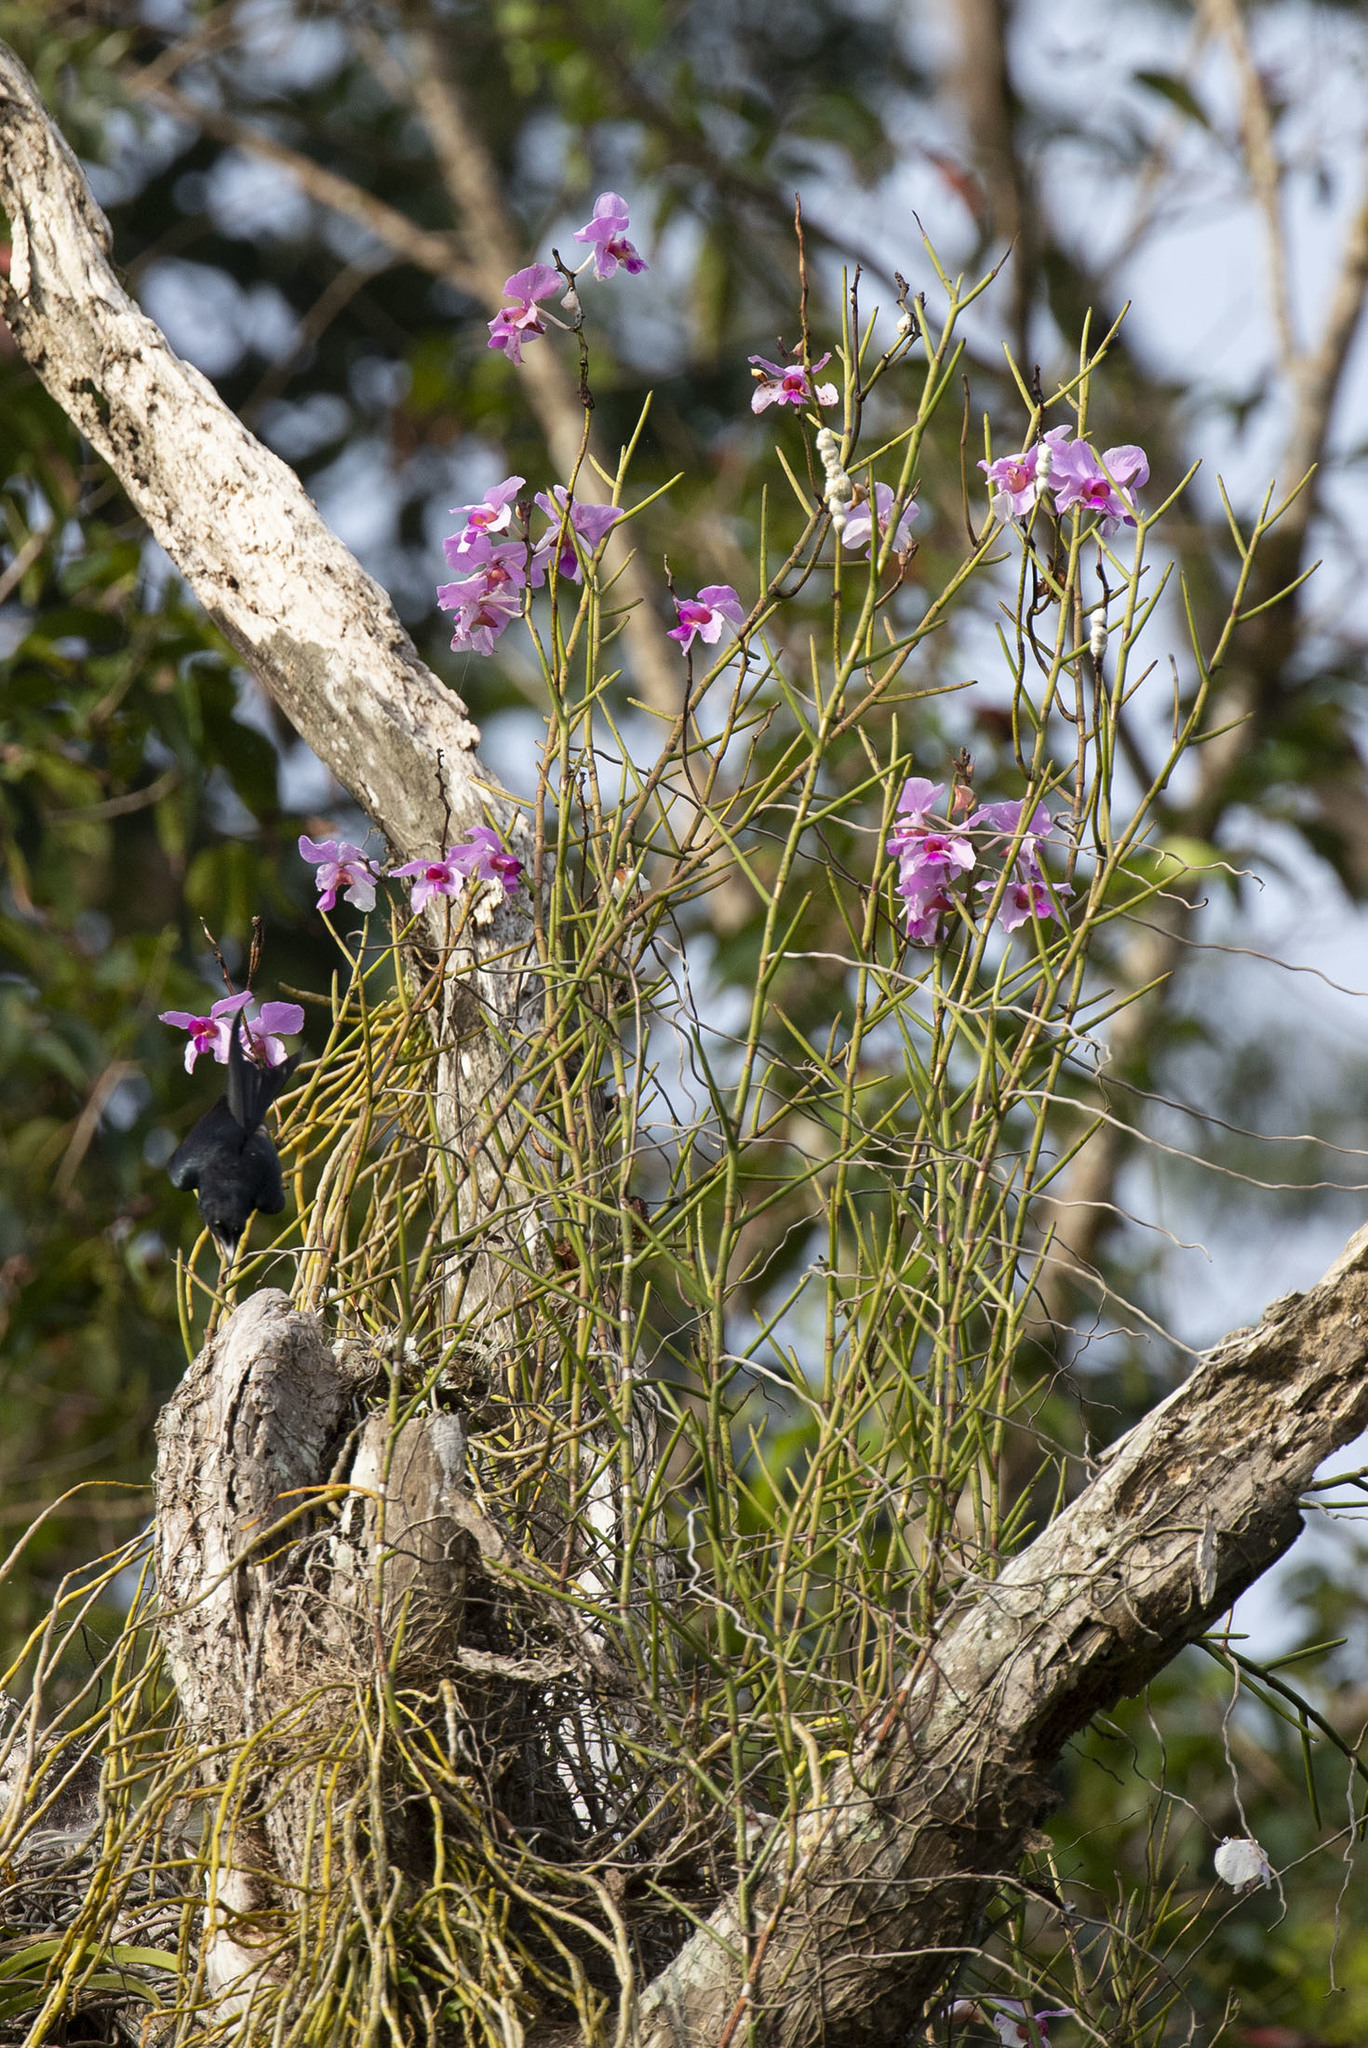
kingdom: Plantae
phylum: Tracheophyta
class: Liliopsida
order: Asparagales
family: Orchidaceae
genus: Papilionanthe
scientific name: Papilionanthe teres
